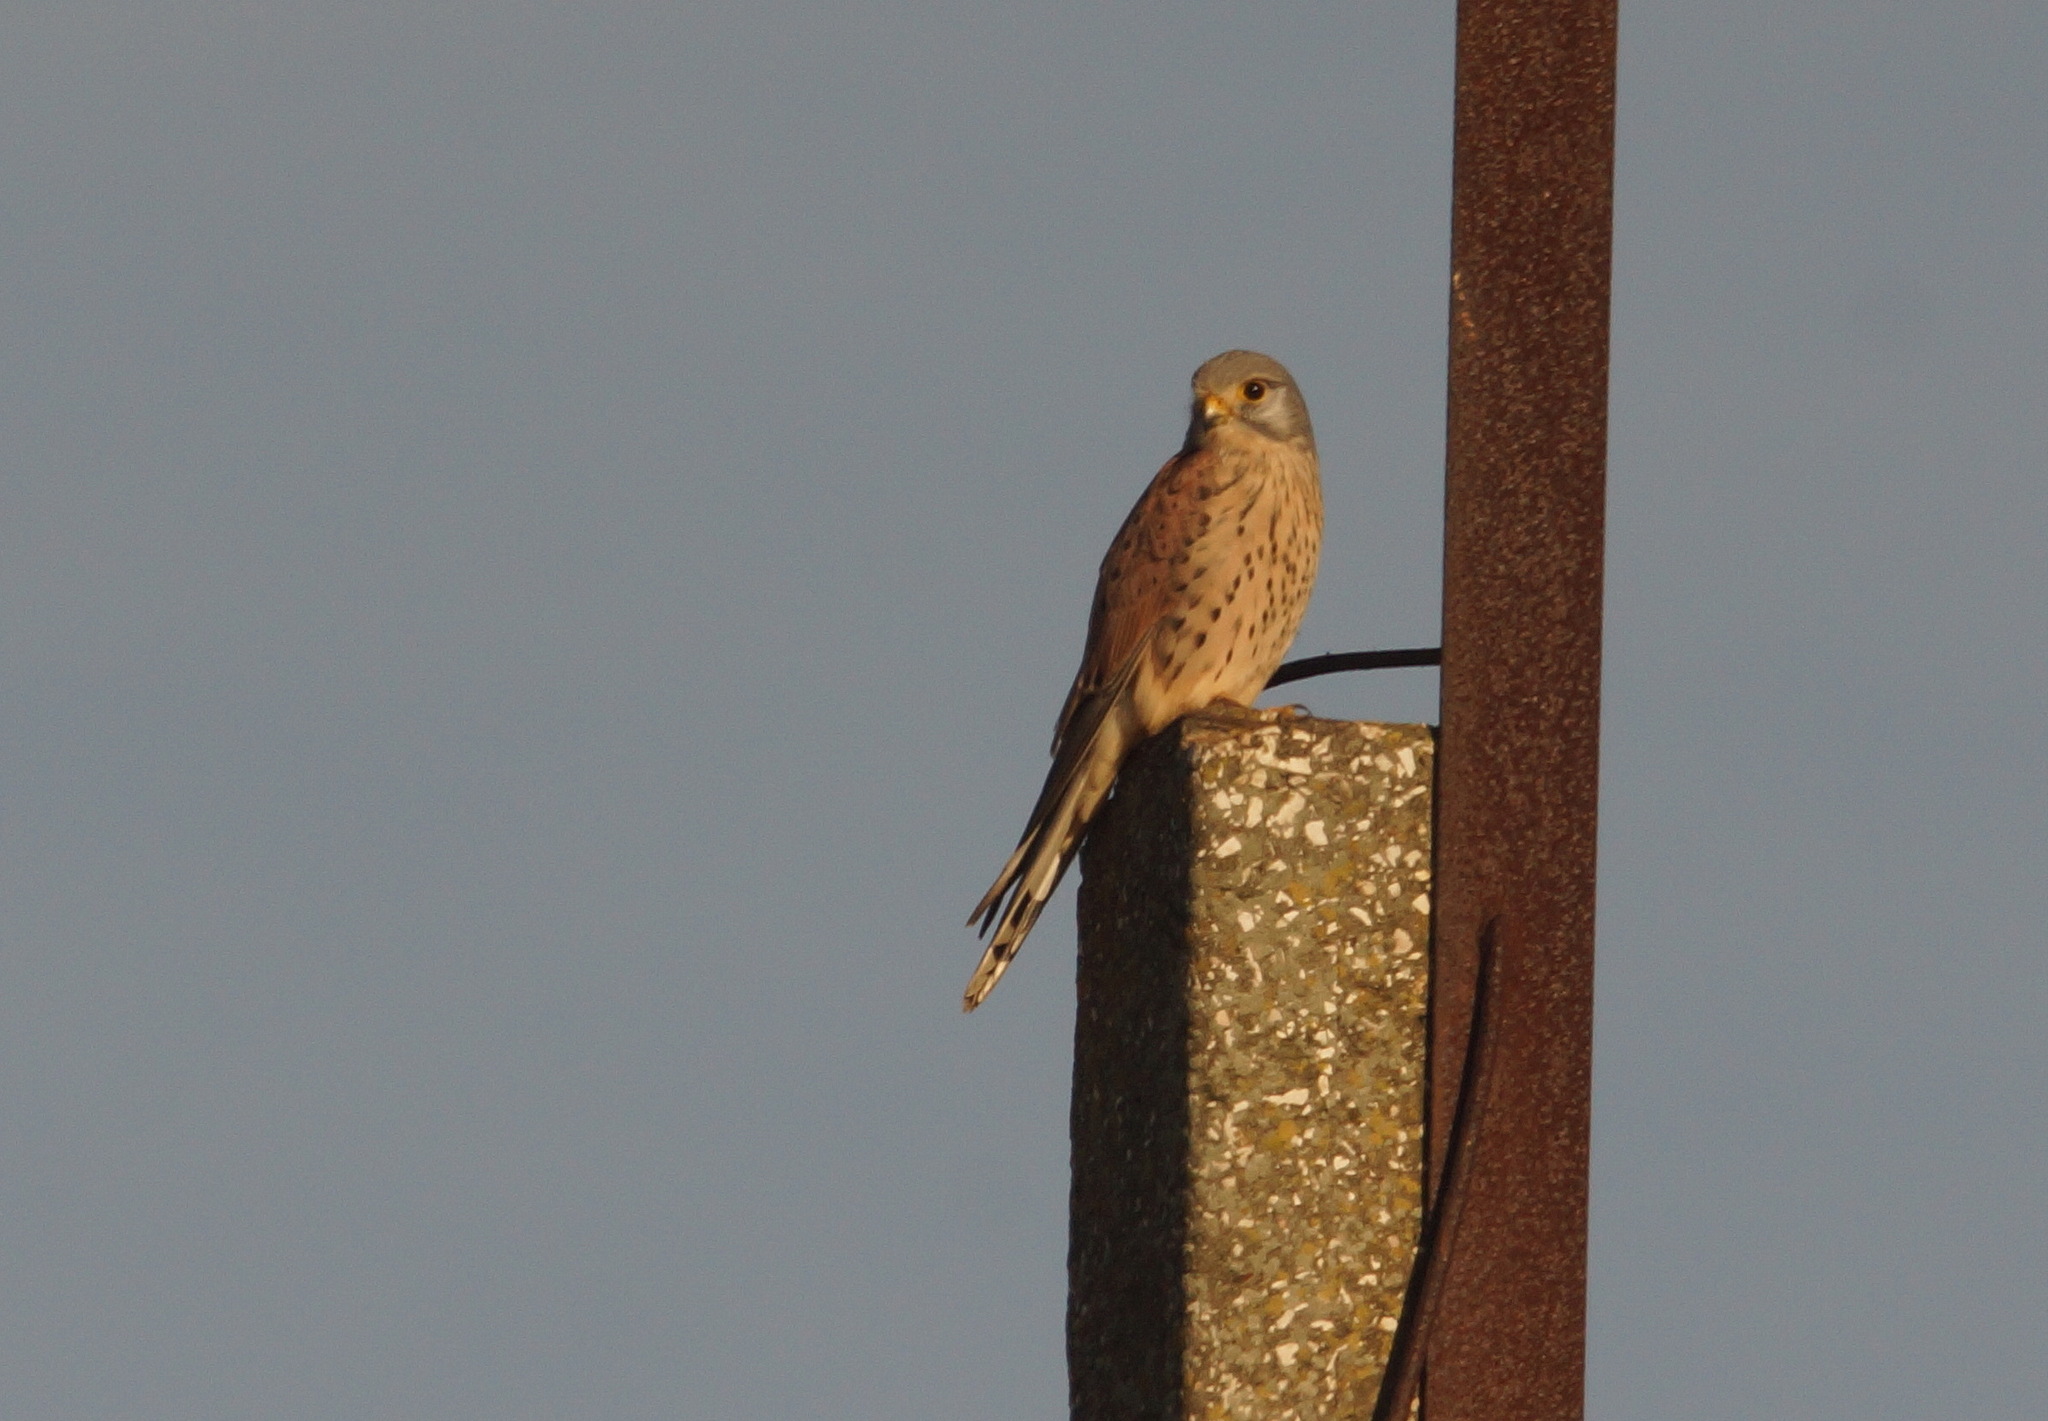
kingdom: Animalia
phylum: Chordata
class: Aves
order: Falconiformes
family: Falconidae
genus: Falco
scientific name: Falco tinnunculus
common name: Common kestrel
